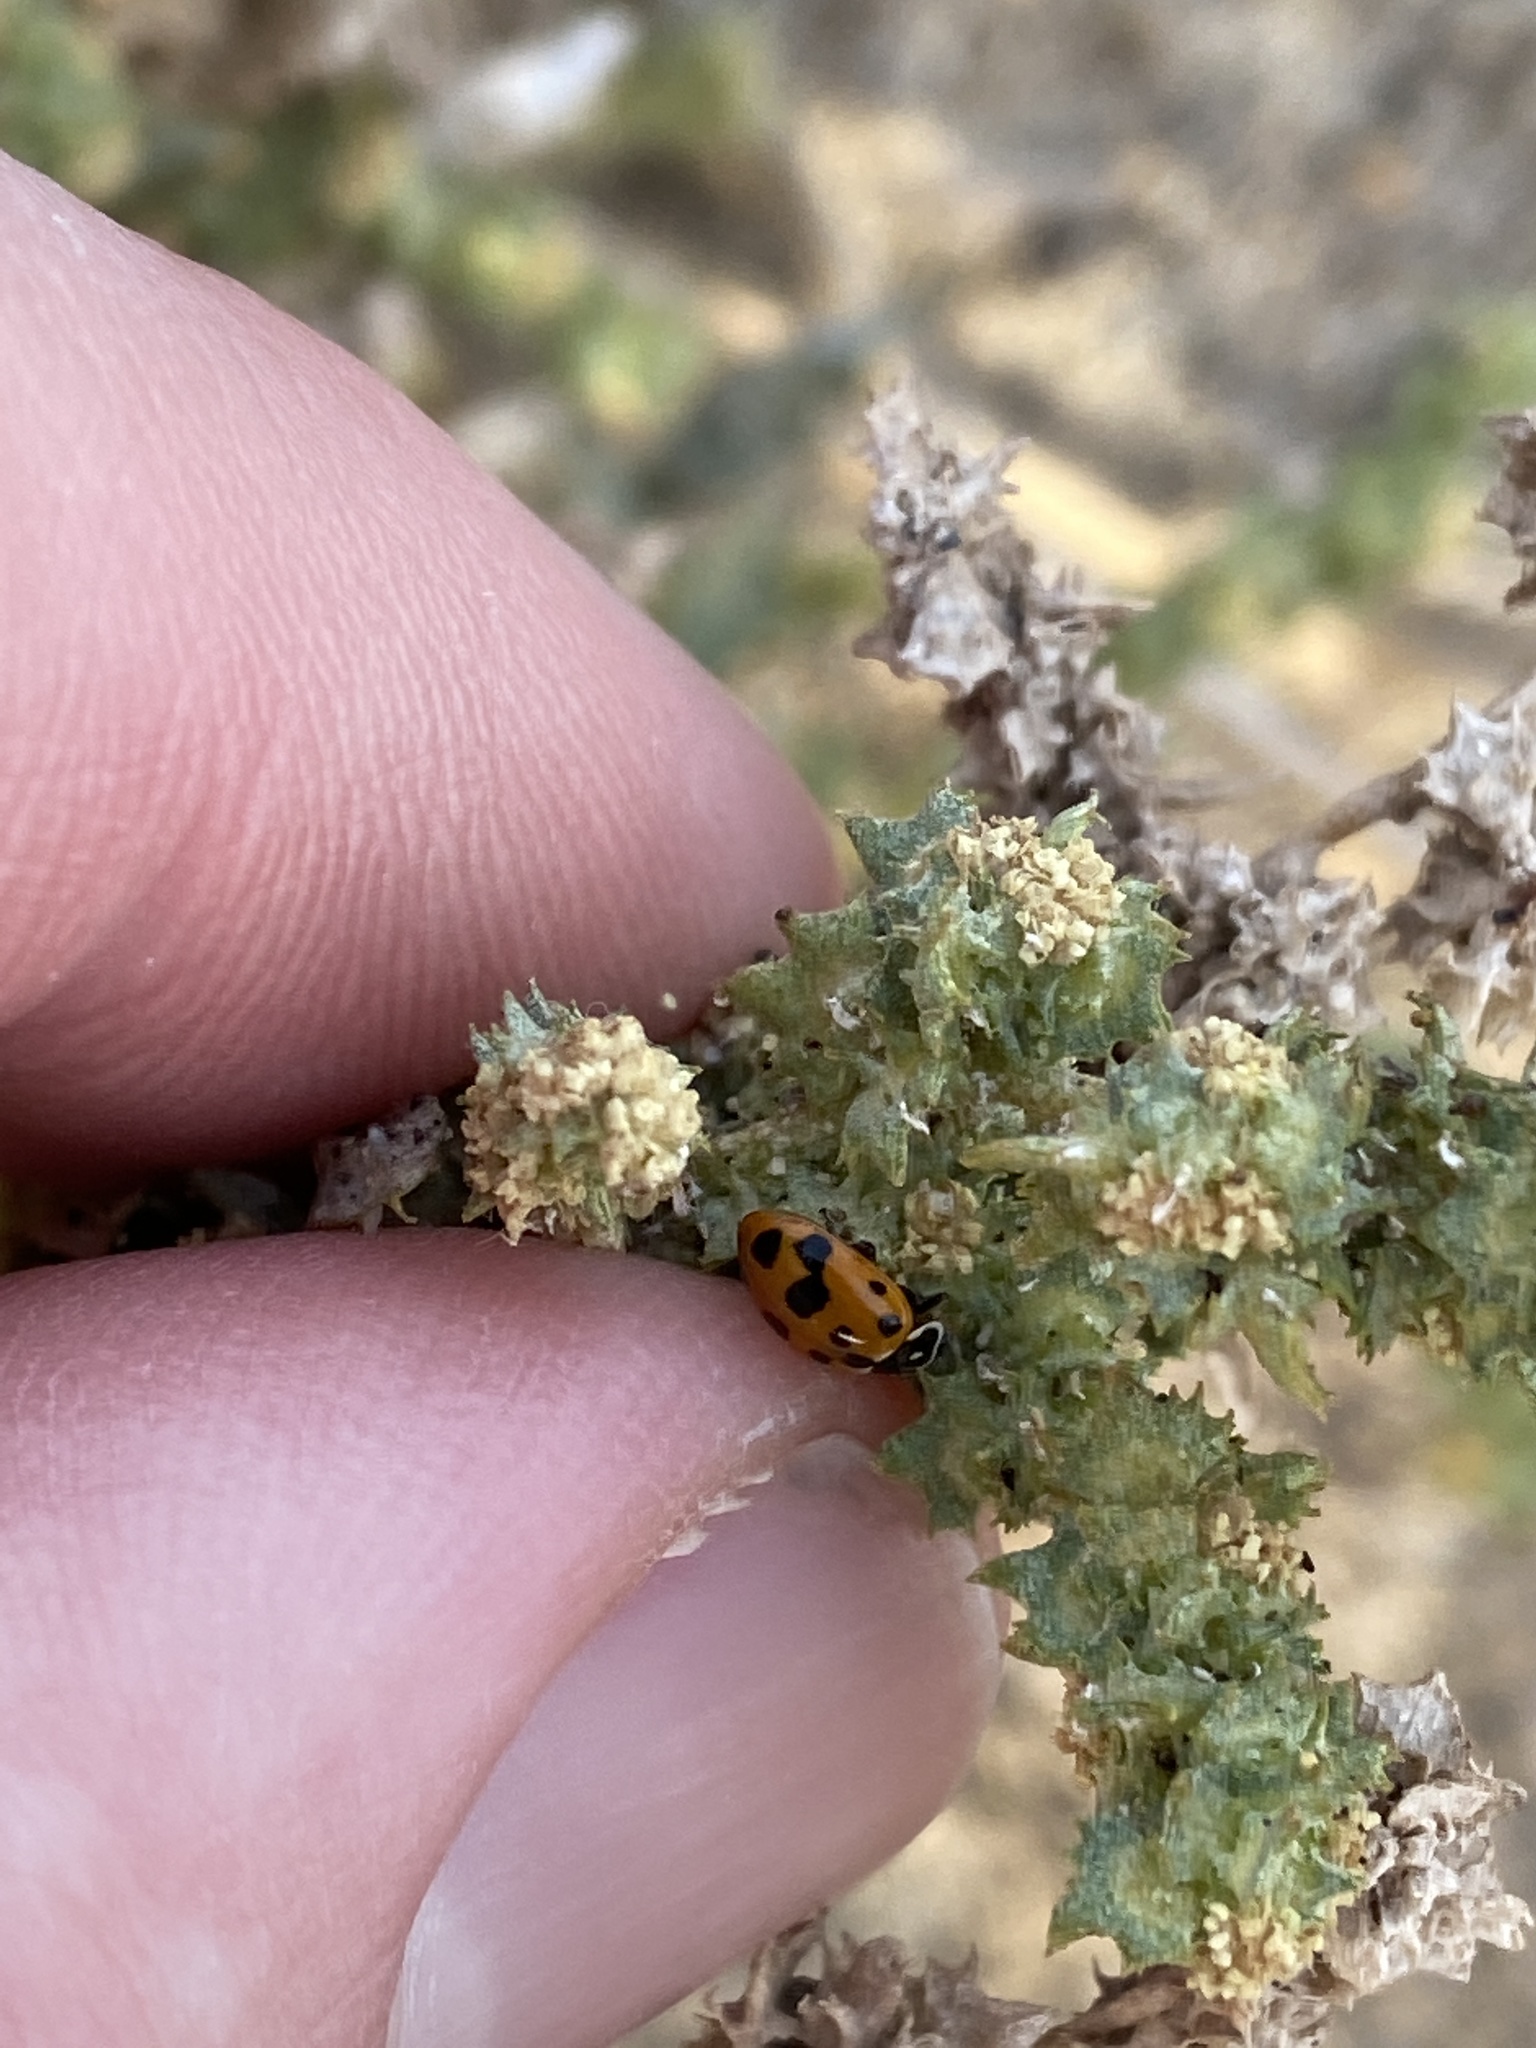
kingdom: Animalia
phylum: Arthropoda
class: Insecta
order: Coleoptera
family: Coccinellidae
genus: Hippodamia
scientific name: Hippodamia variegata
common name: Ladybird beetle
